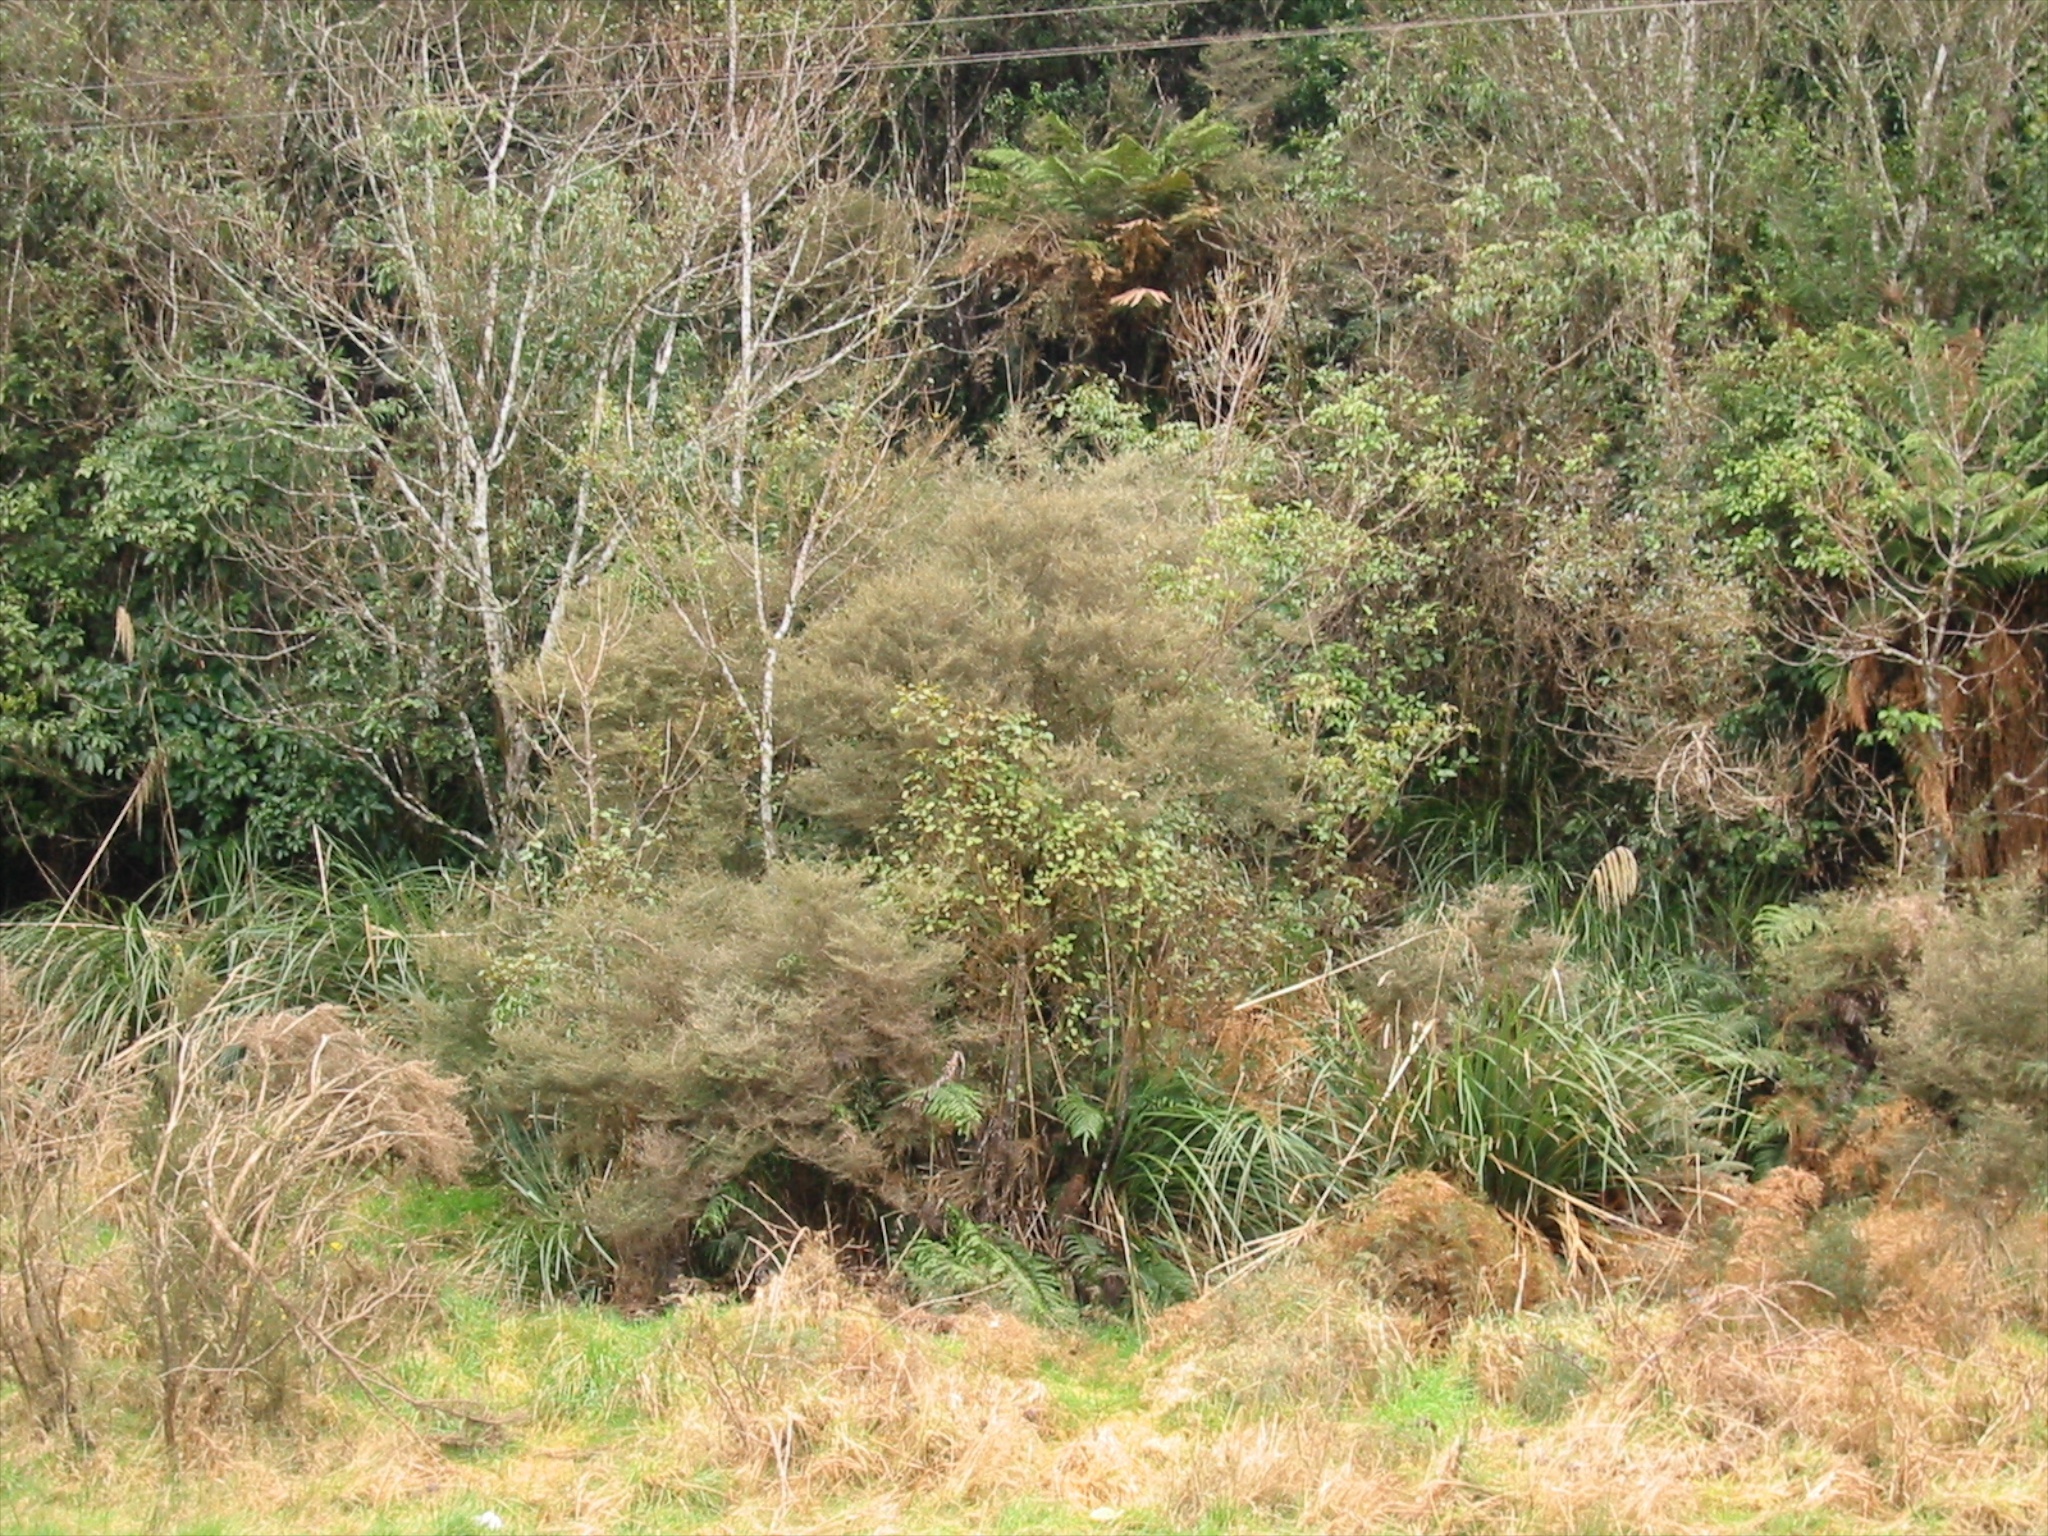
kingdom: Plantae
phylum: Tracheophyta
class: Liliopsida
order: Poales
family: Poaceae
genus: Austroderia
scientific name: Austroderia fulvida
